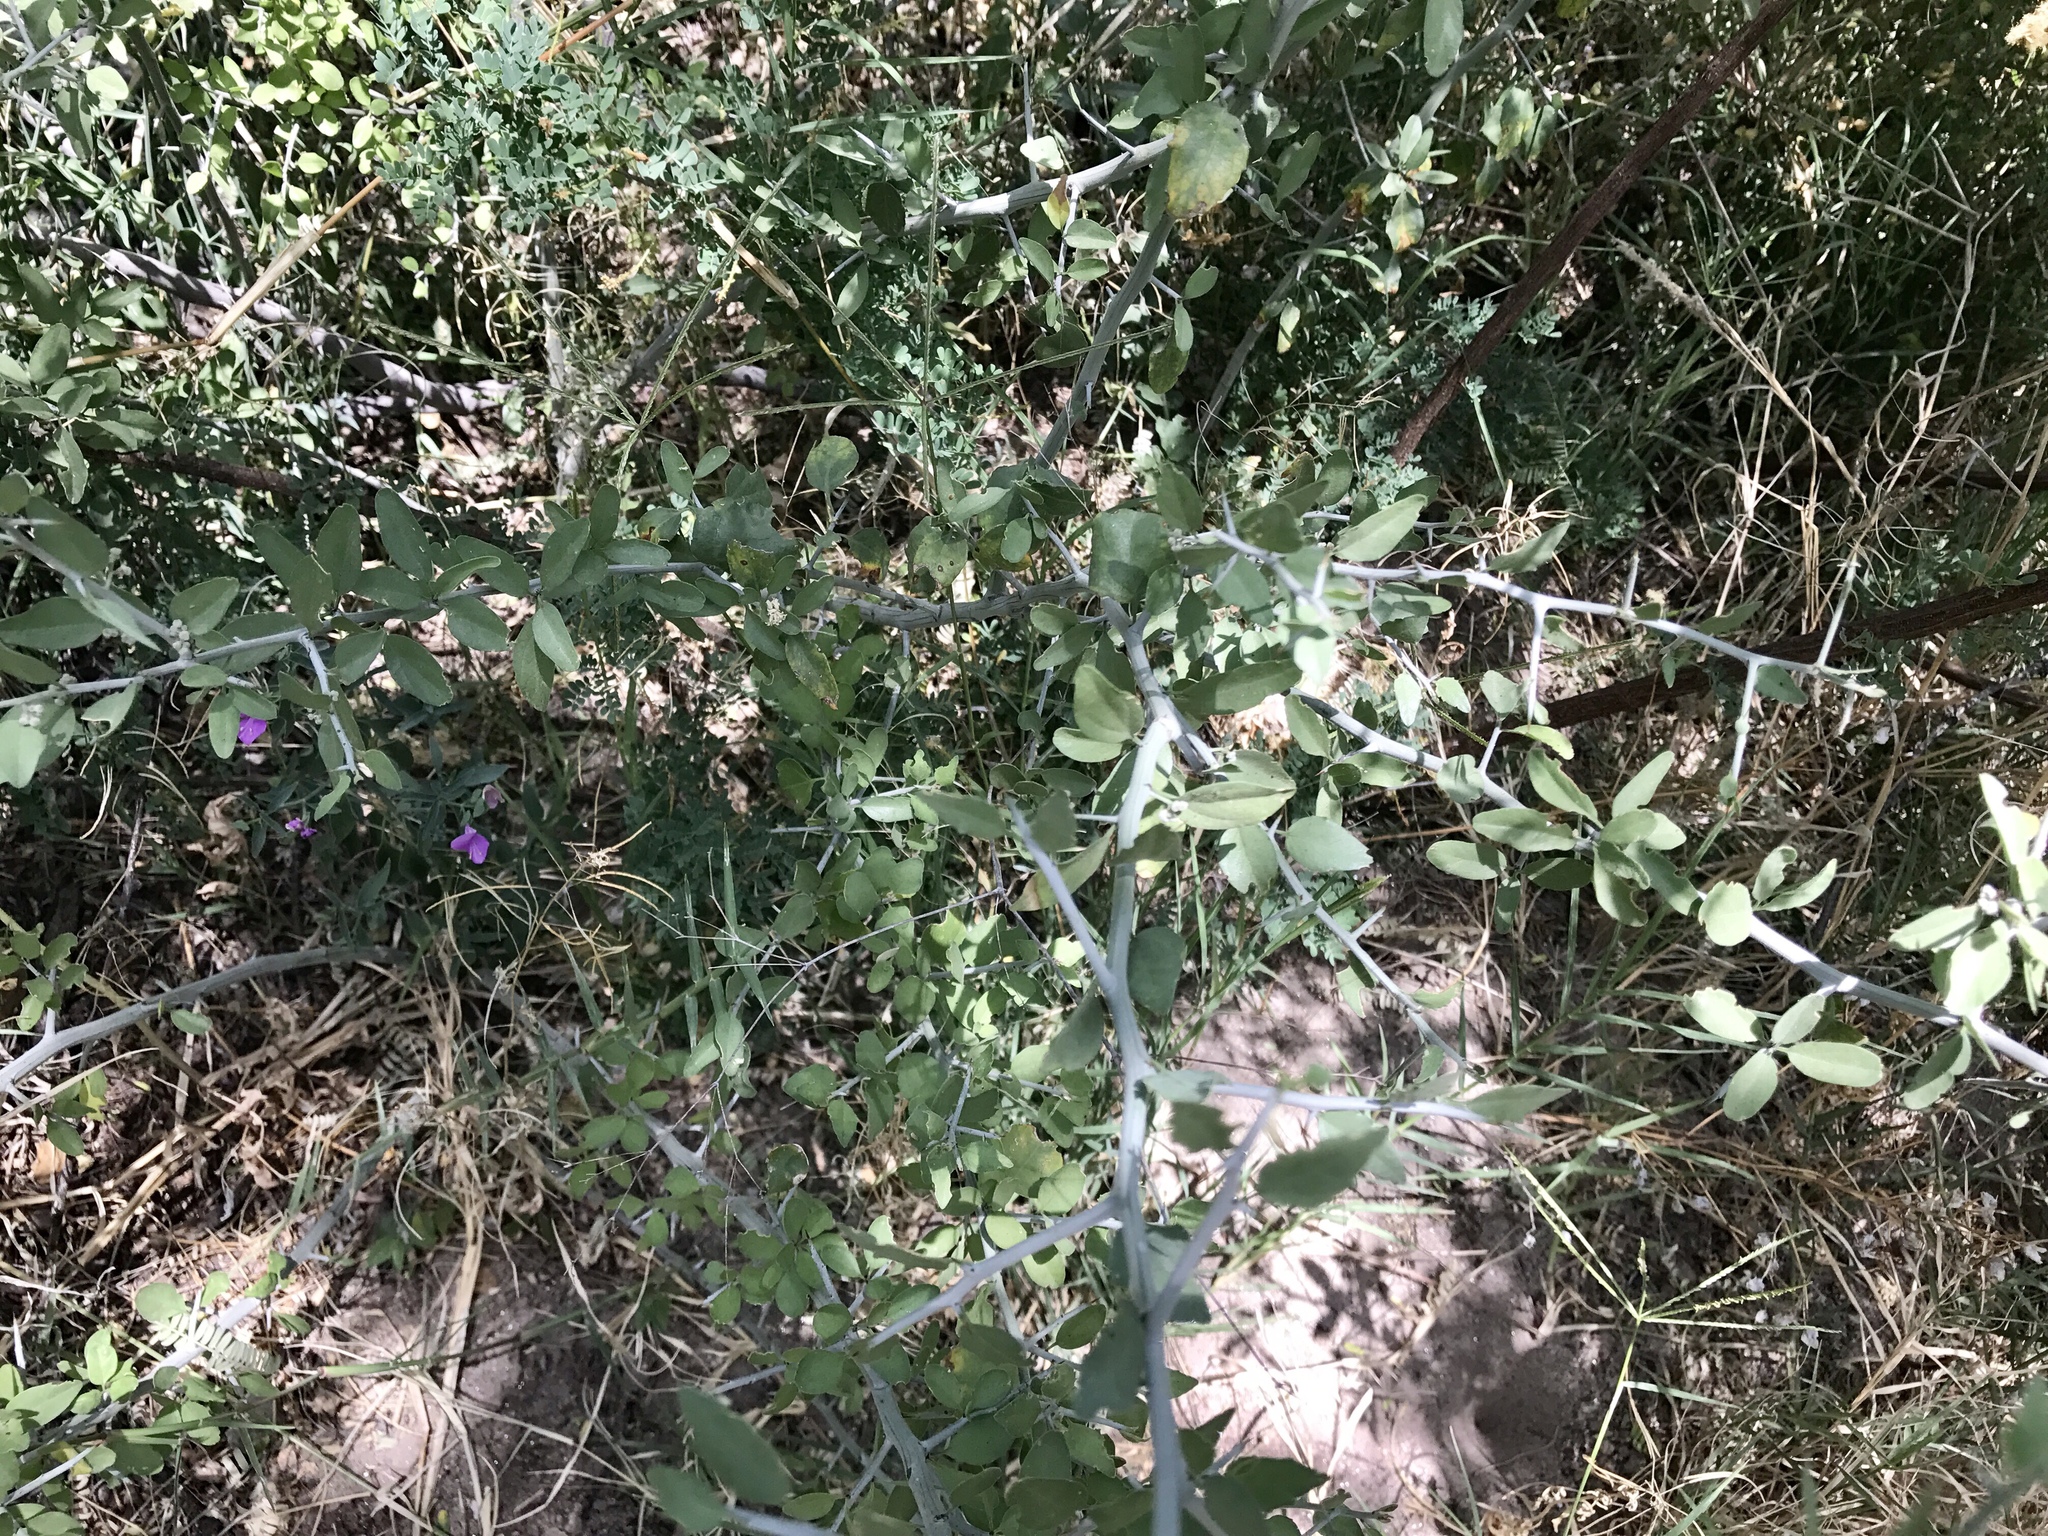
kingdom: Plantae
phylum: Tracheophyta
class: Magnoliopsida
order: Rosales
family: Rhamnaceae
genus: Sarcomphalus
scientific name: Sarcomphalus obtusifolius
